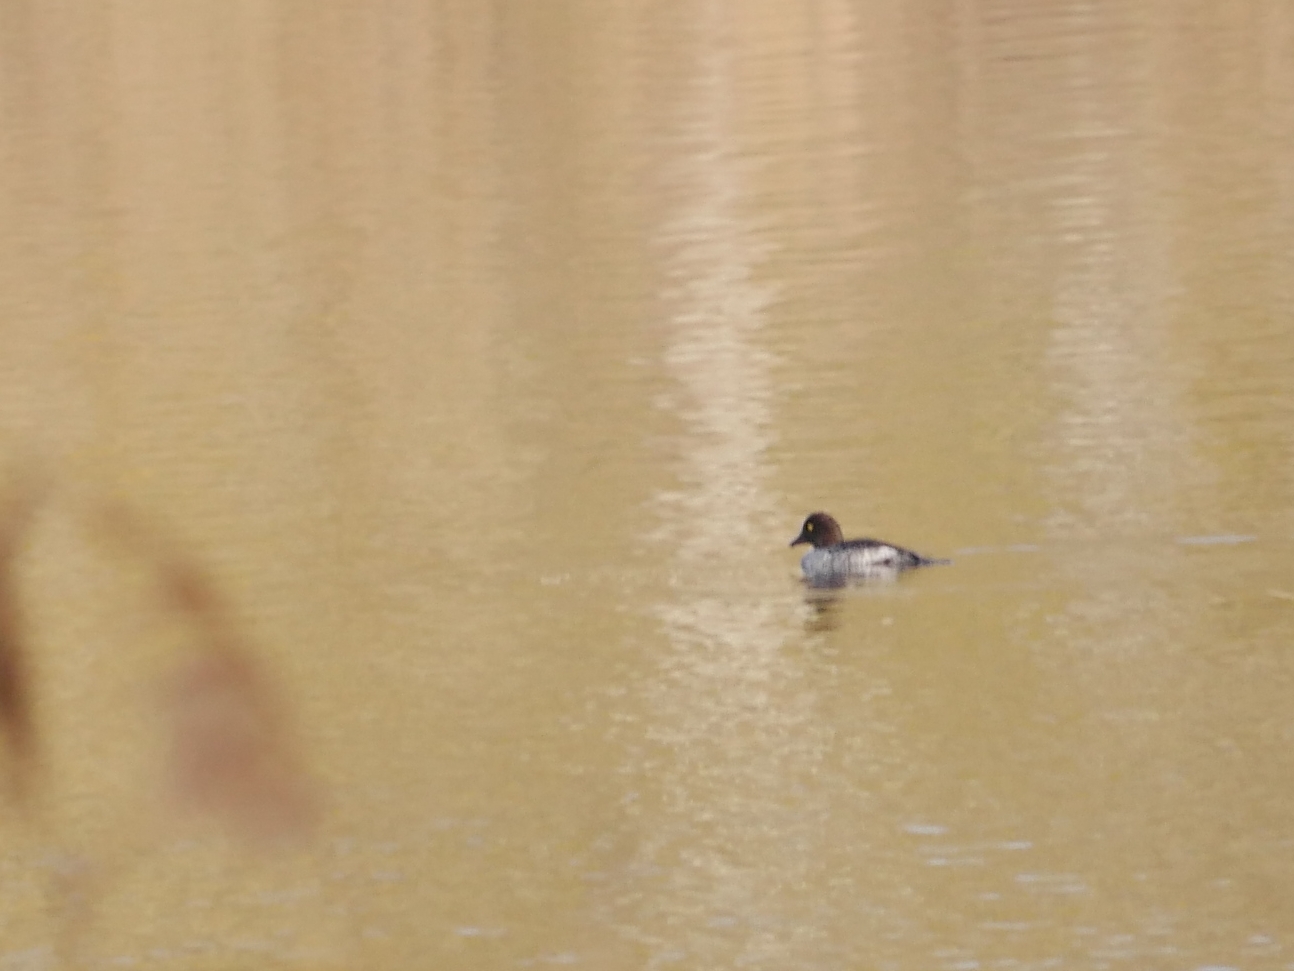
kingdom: Animalia
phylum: Chordata
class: Aves
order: Anseriformes
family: Anatidae
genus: Bucephala
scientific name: Bucephala clangula
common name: Common goldeneye
